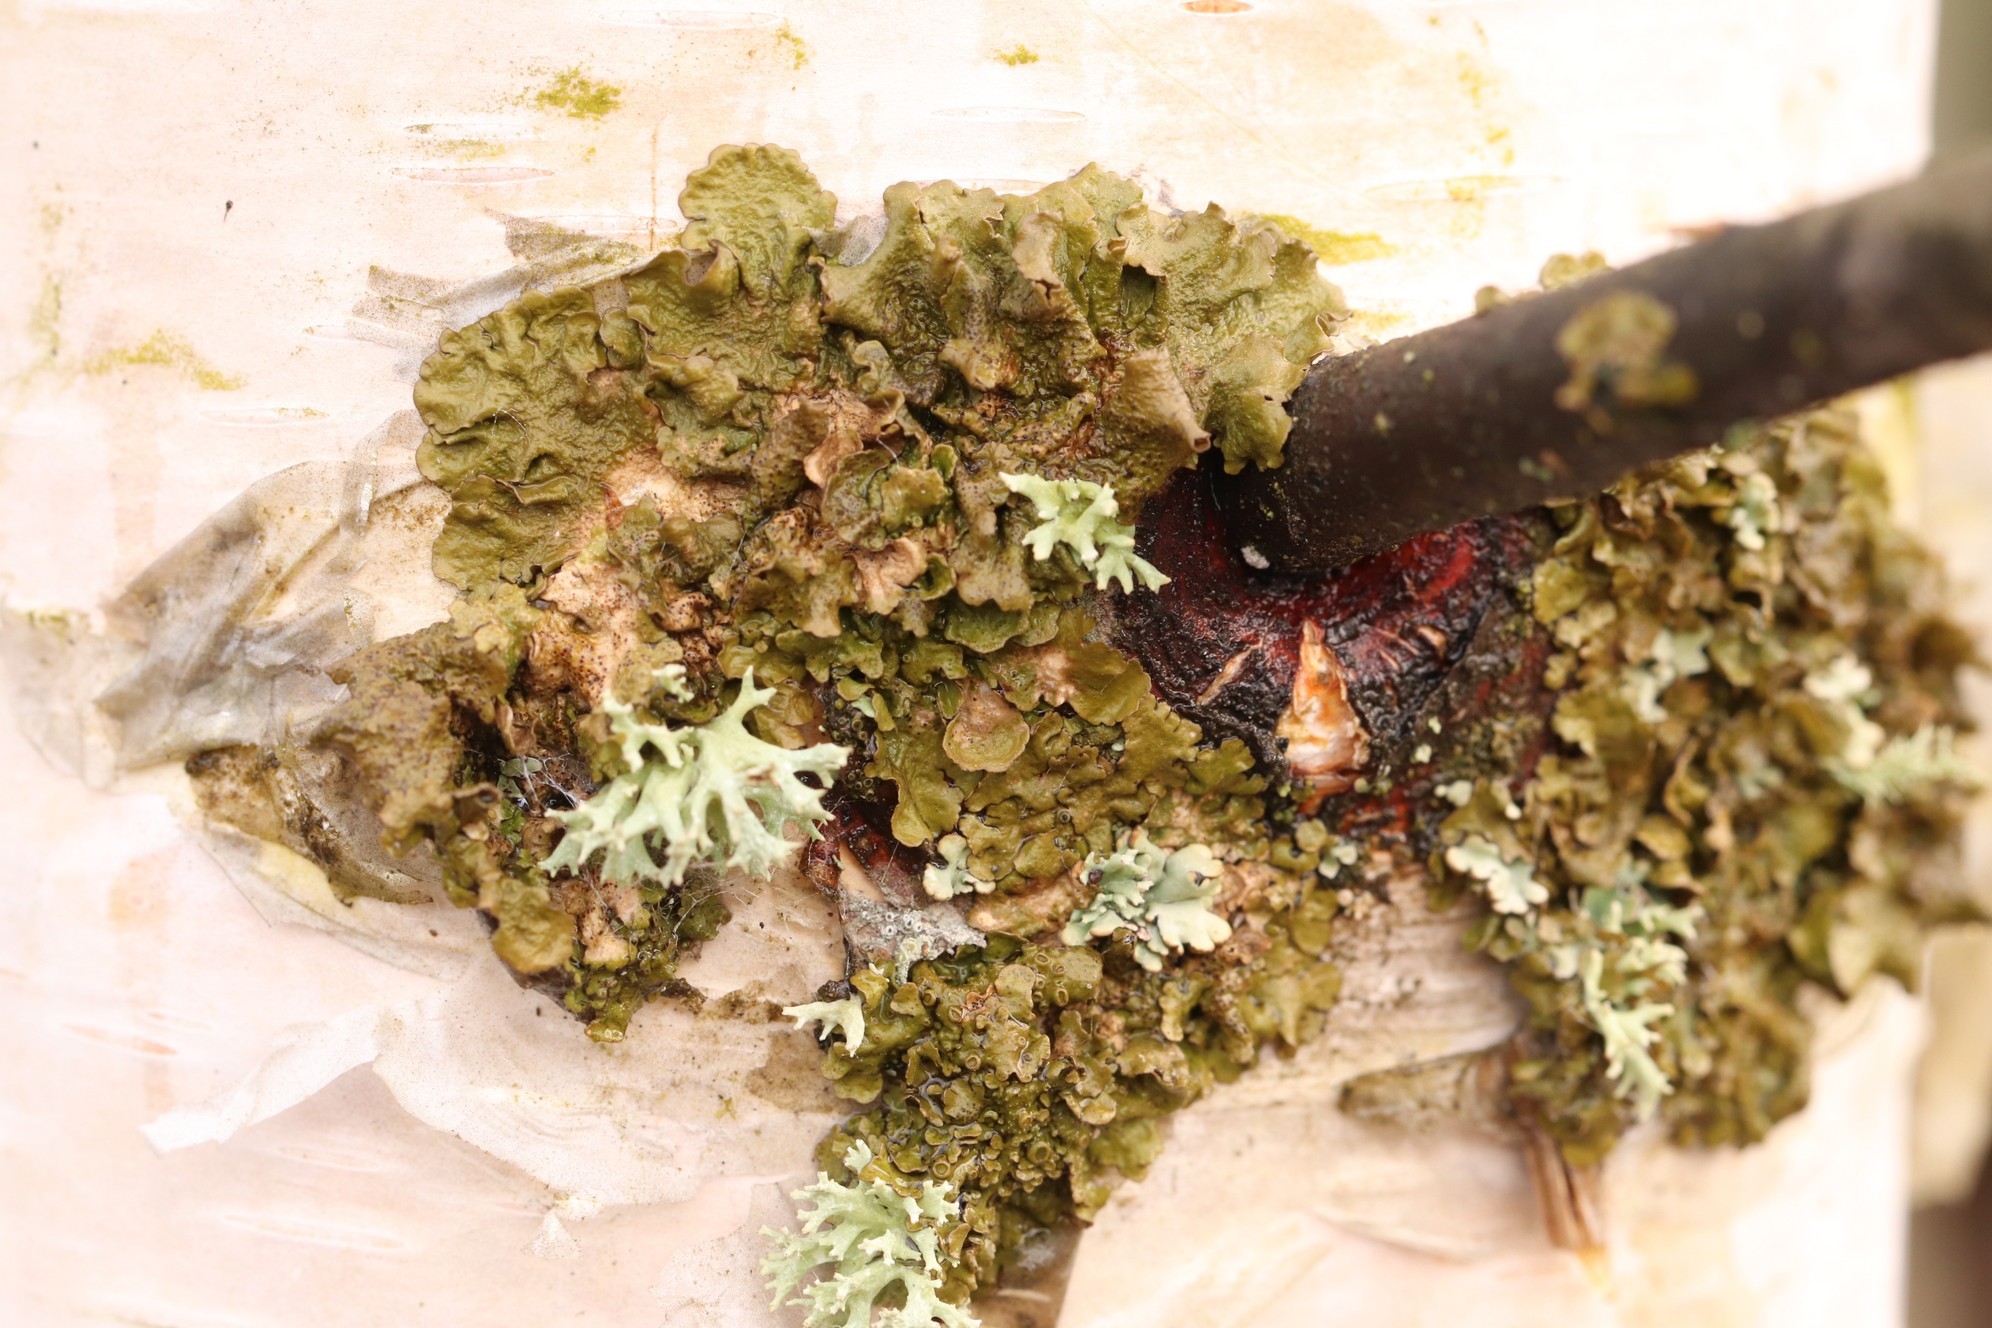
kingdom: Fungi
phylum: Ascomycota
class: Lecanoromycetes
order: Lecanorales
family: Parmeliaceae
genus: Melanohalea
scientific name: Melanohalea olivacea
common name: Spotted camouflage lichen
